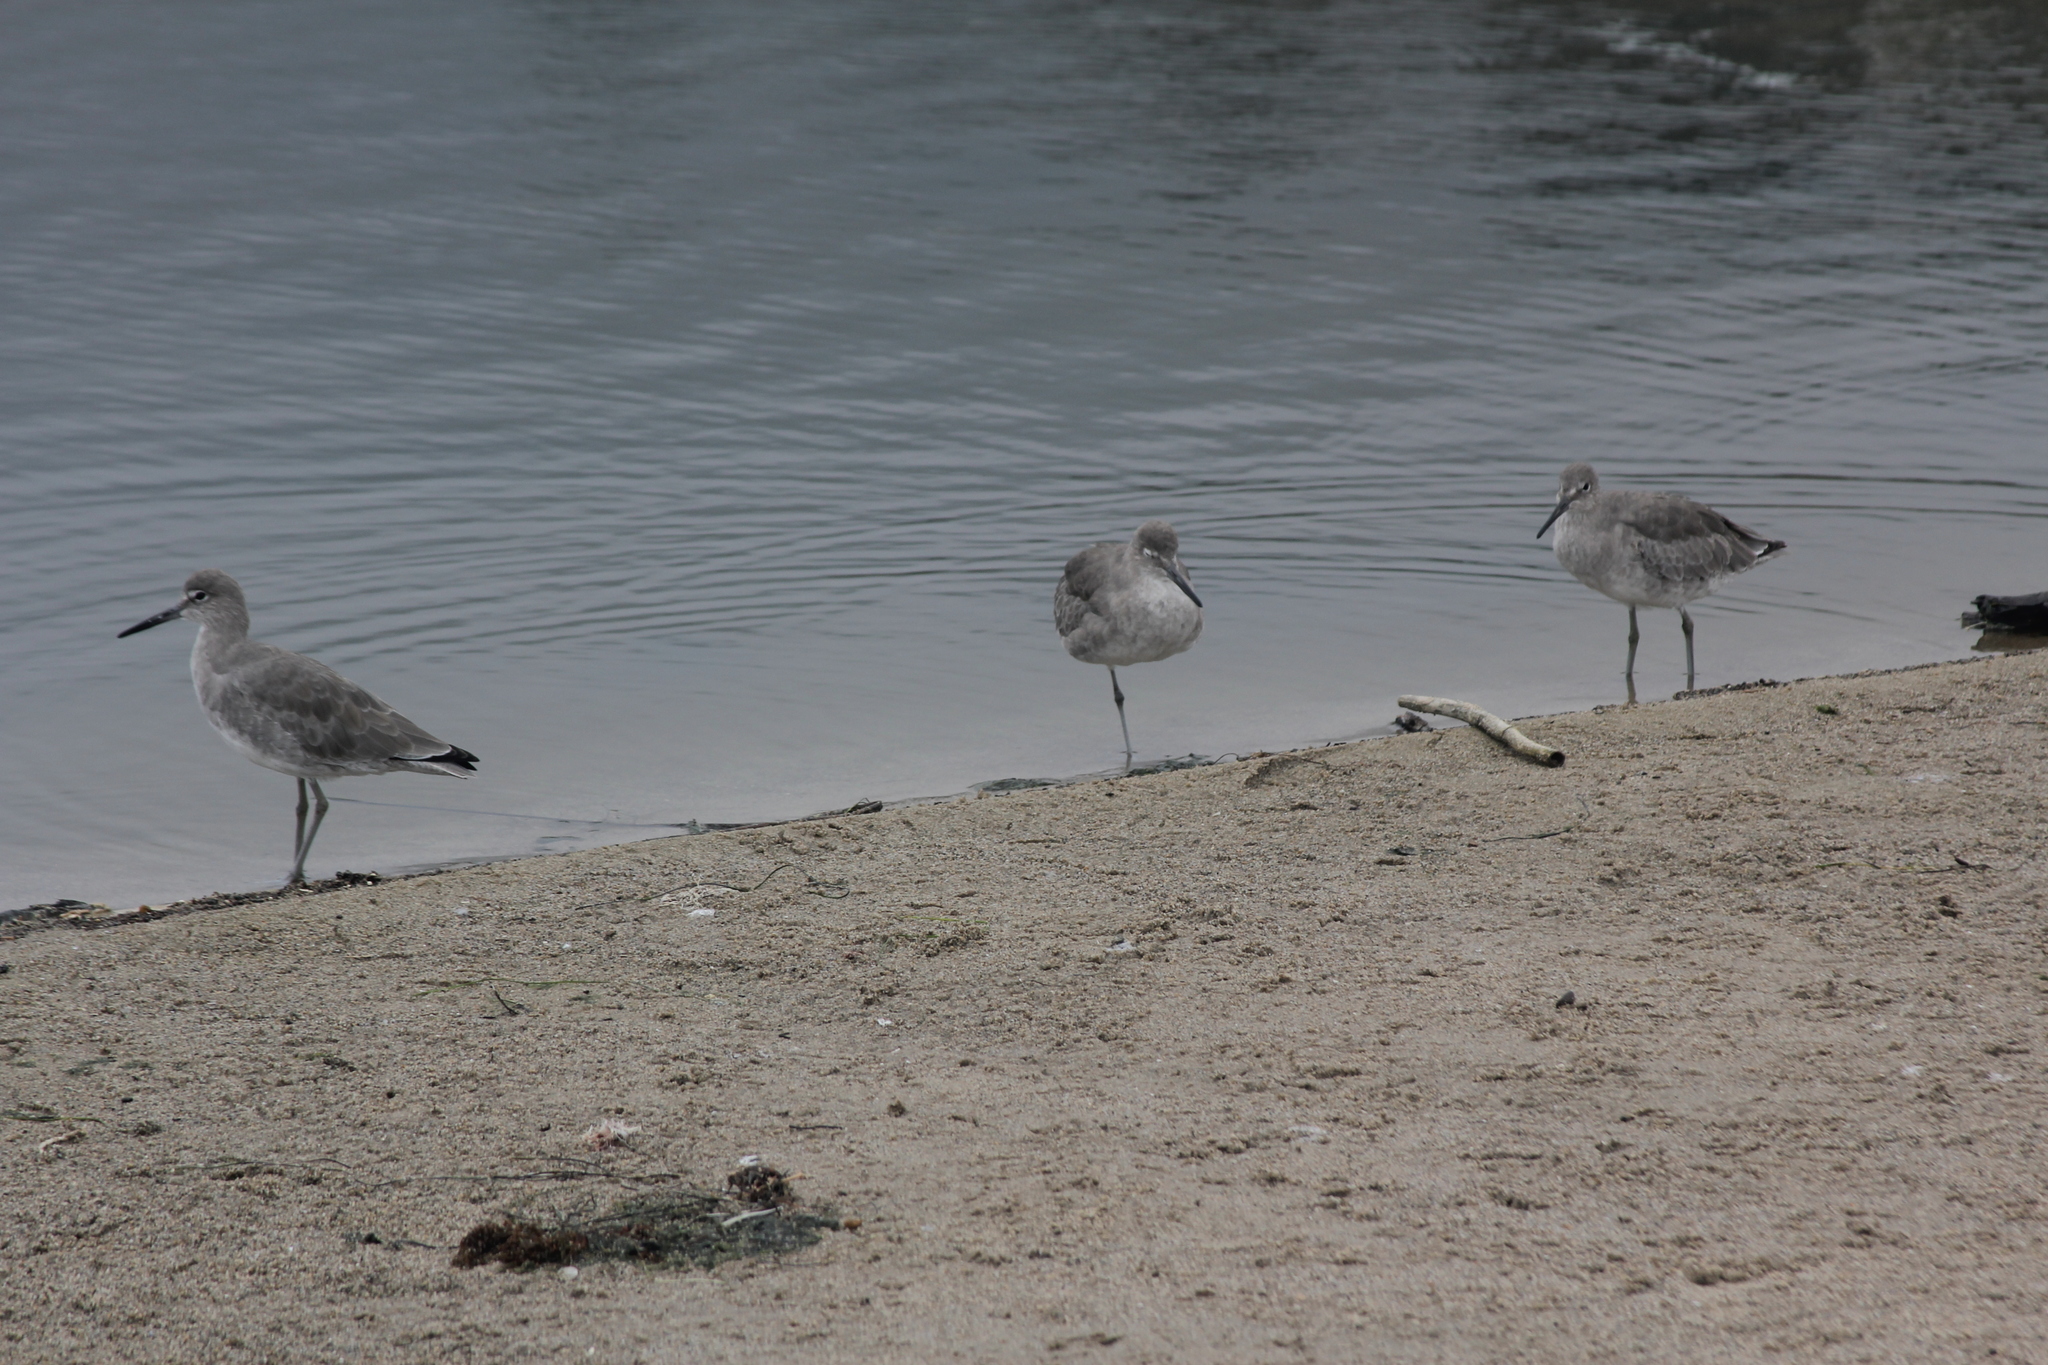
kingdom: Animalia
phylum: Chordata
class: Aves
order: Charadriiformes
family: Scolopacidae
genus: Tringa
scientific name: Tringa semipalmata
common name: Willet
